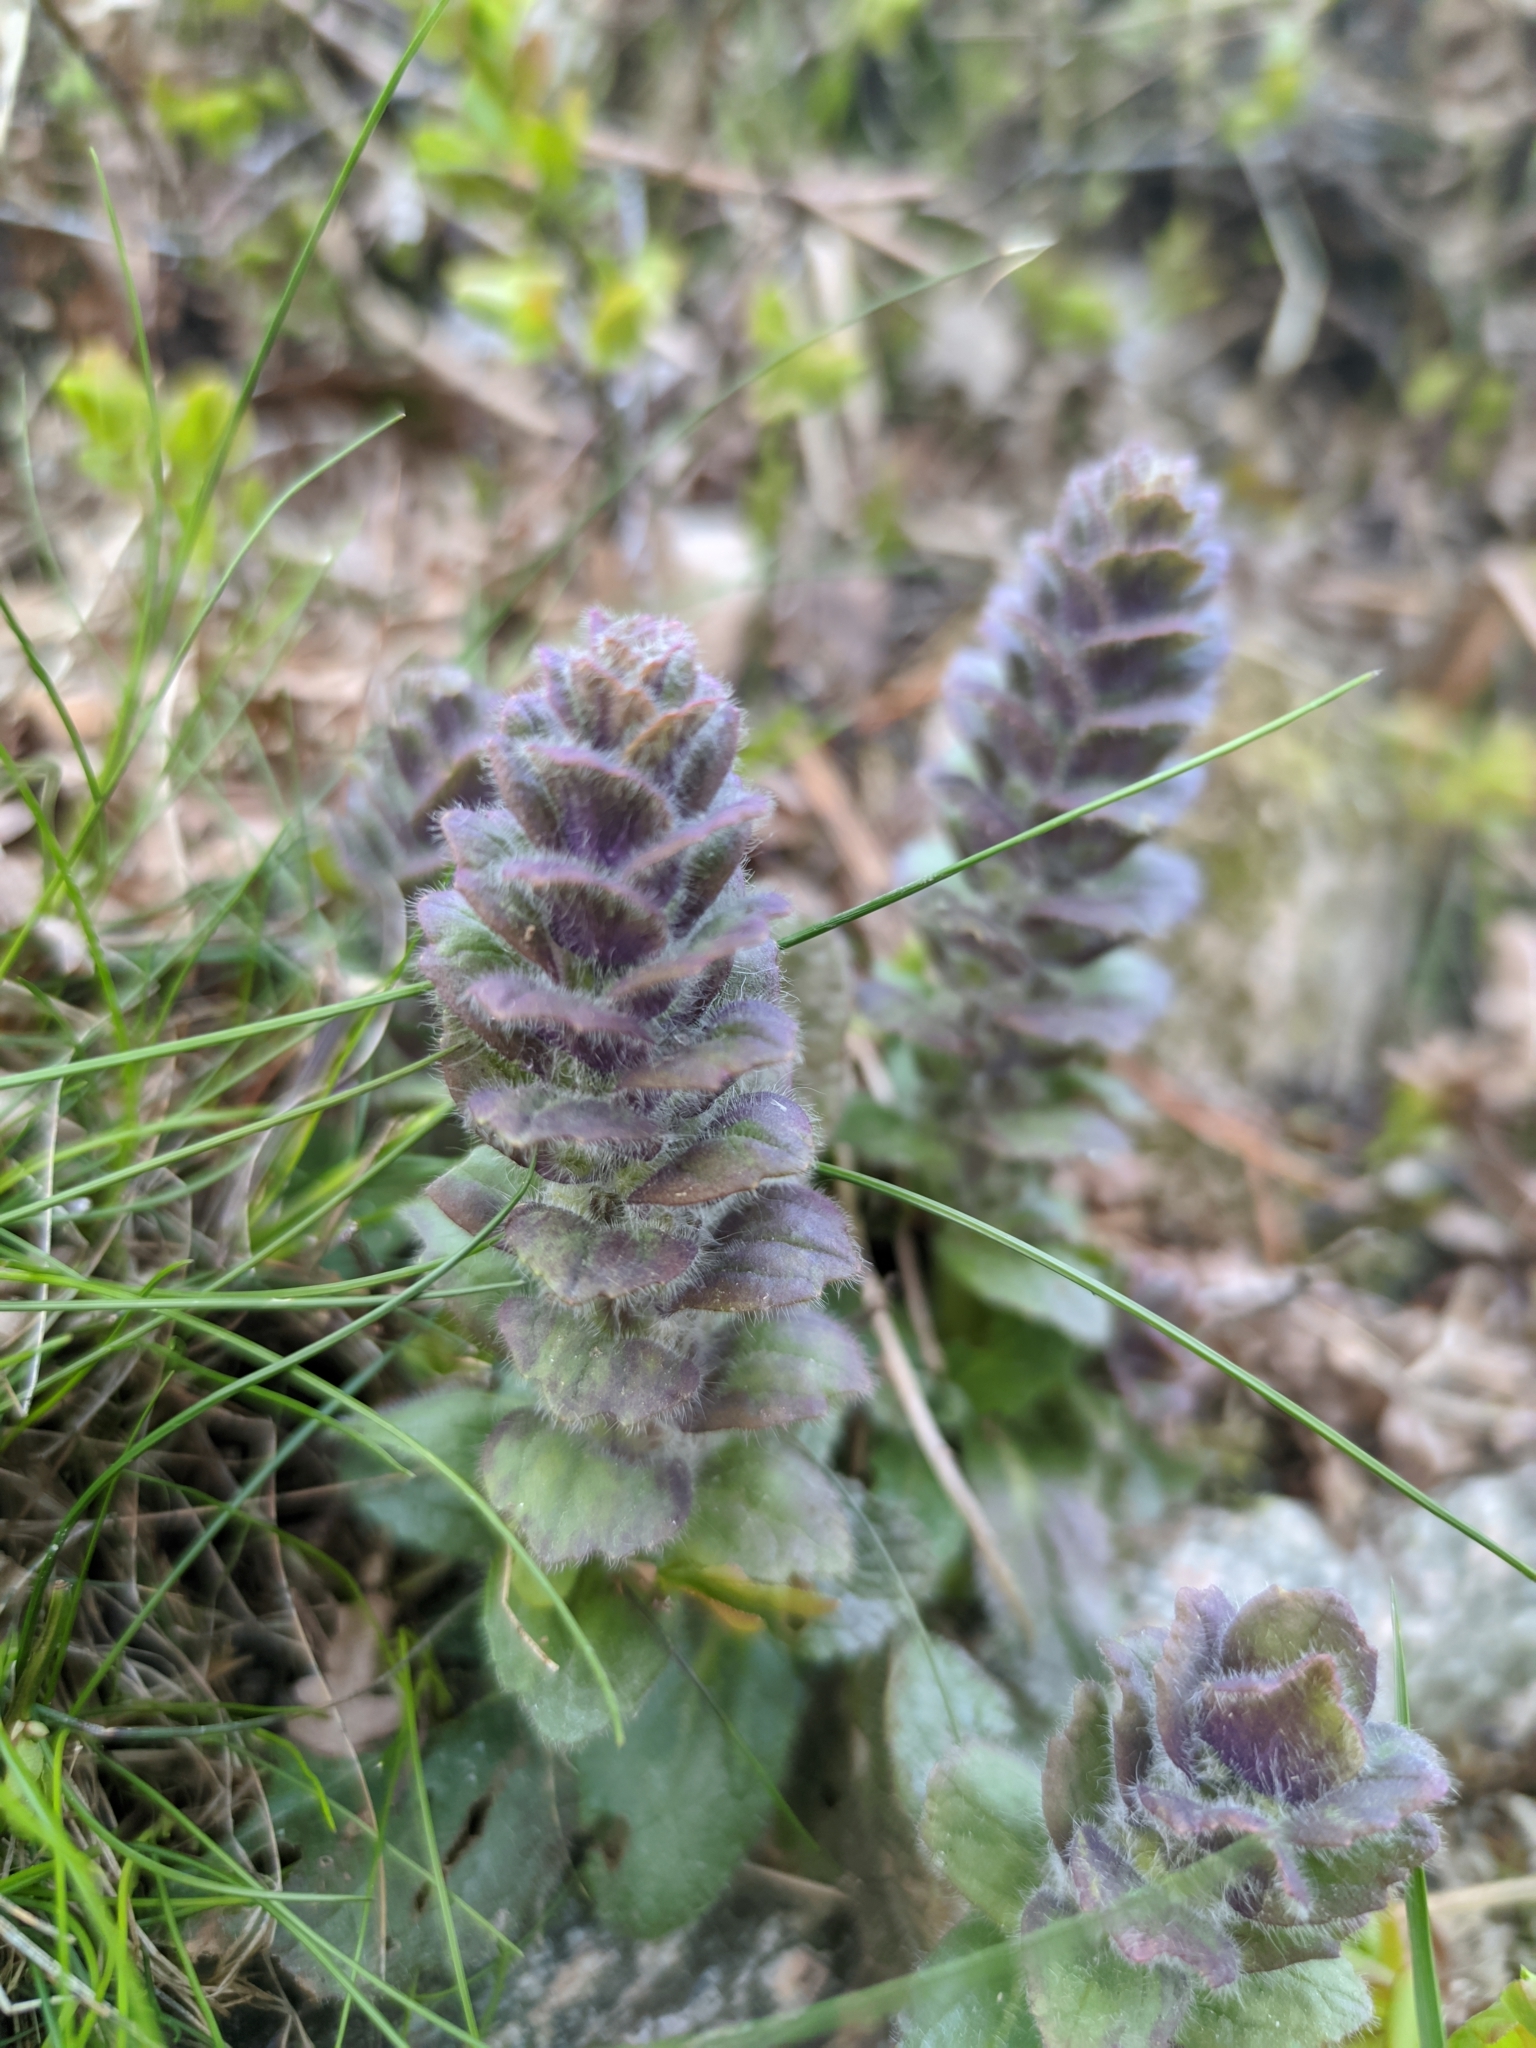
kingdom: Plantae
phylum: Tracheophyta
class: Magnoliopsida
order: Lamiales
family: Lamiaceae
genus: Ajuga
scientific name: Ajuga pyramidalis
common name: Pyramid bugle
